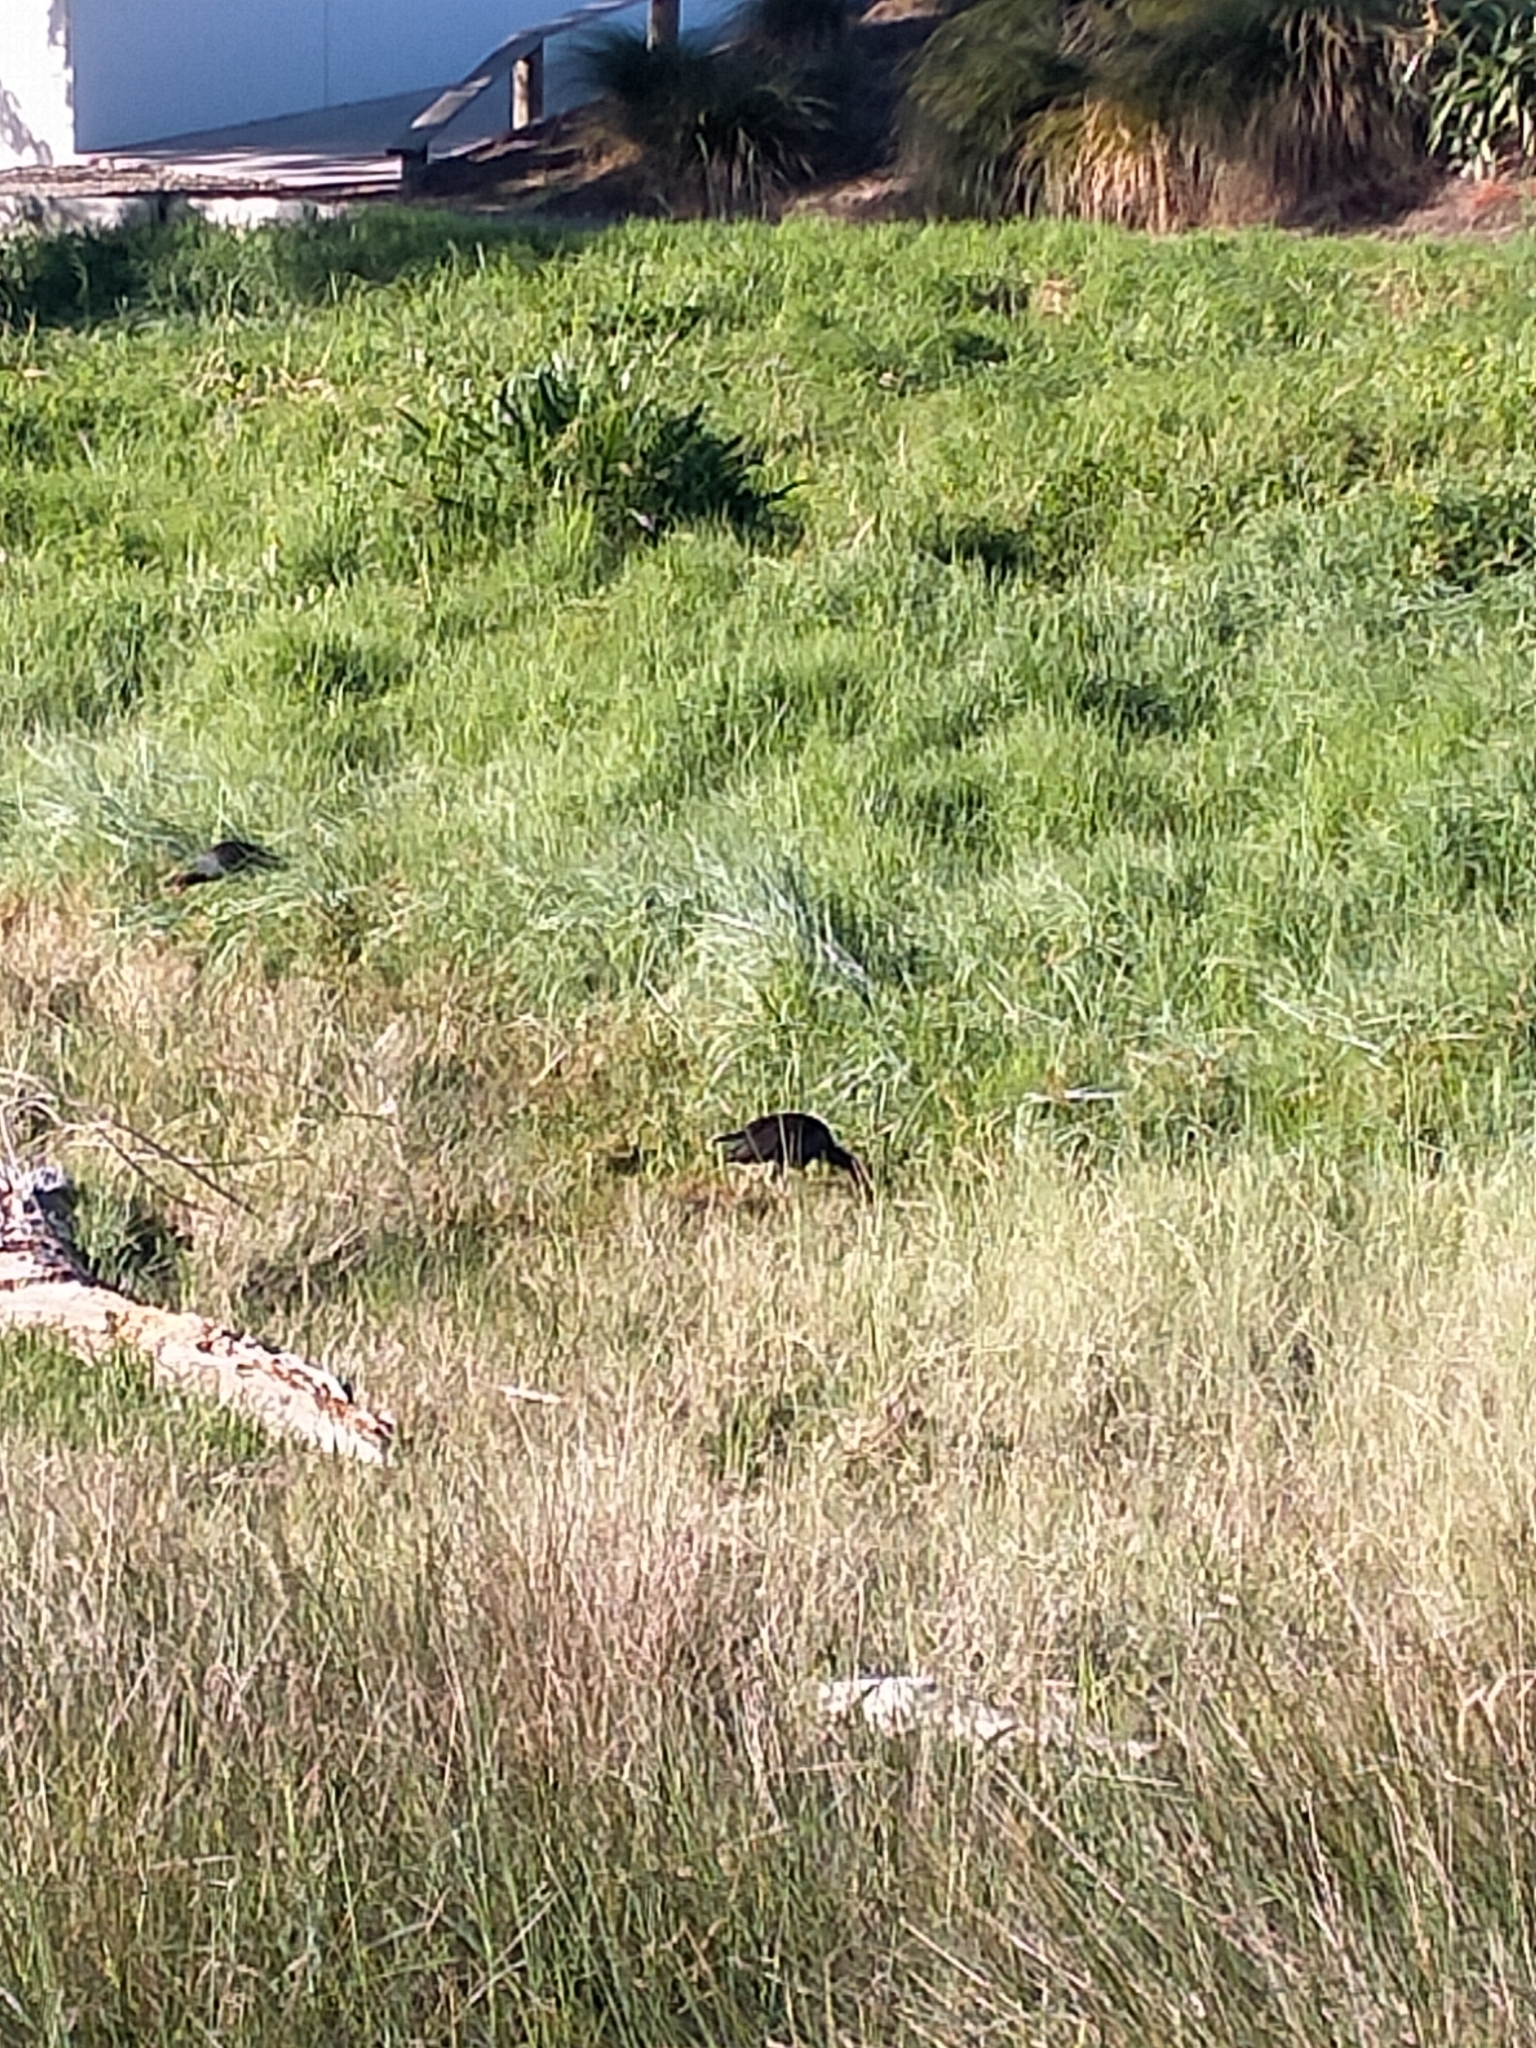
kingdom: Animalia
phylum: Chordata
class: Aves
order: Gruiformes
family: Rallidae
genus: Porphyrio
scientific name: Porphyrio melanotus
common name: Australasian swamphen
